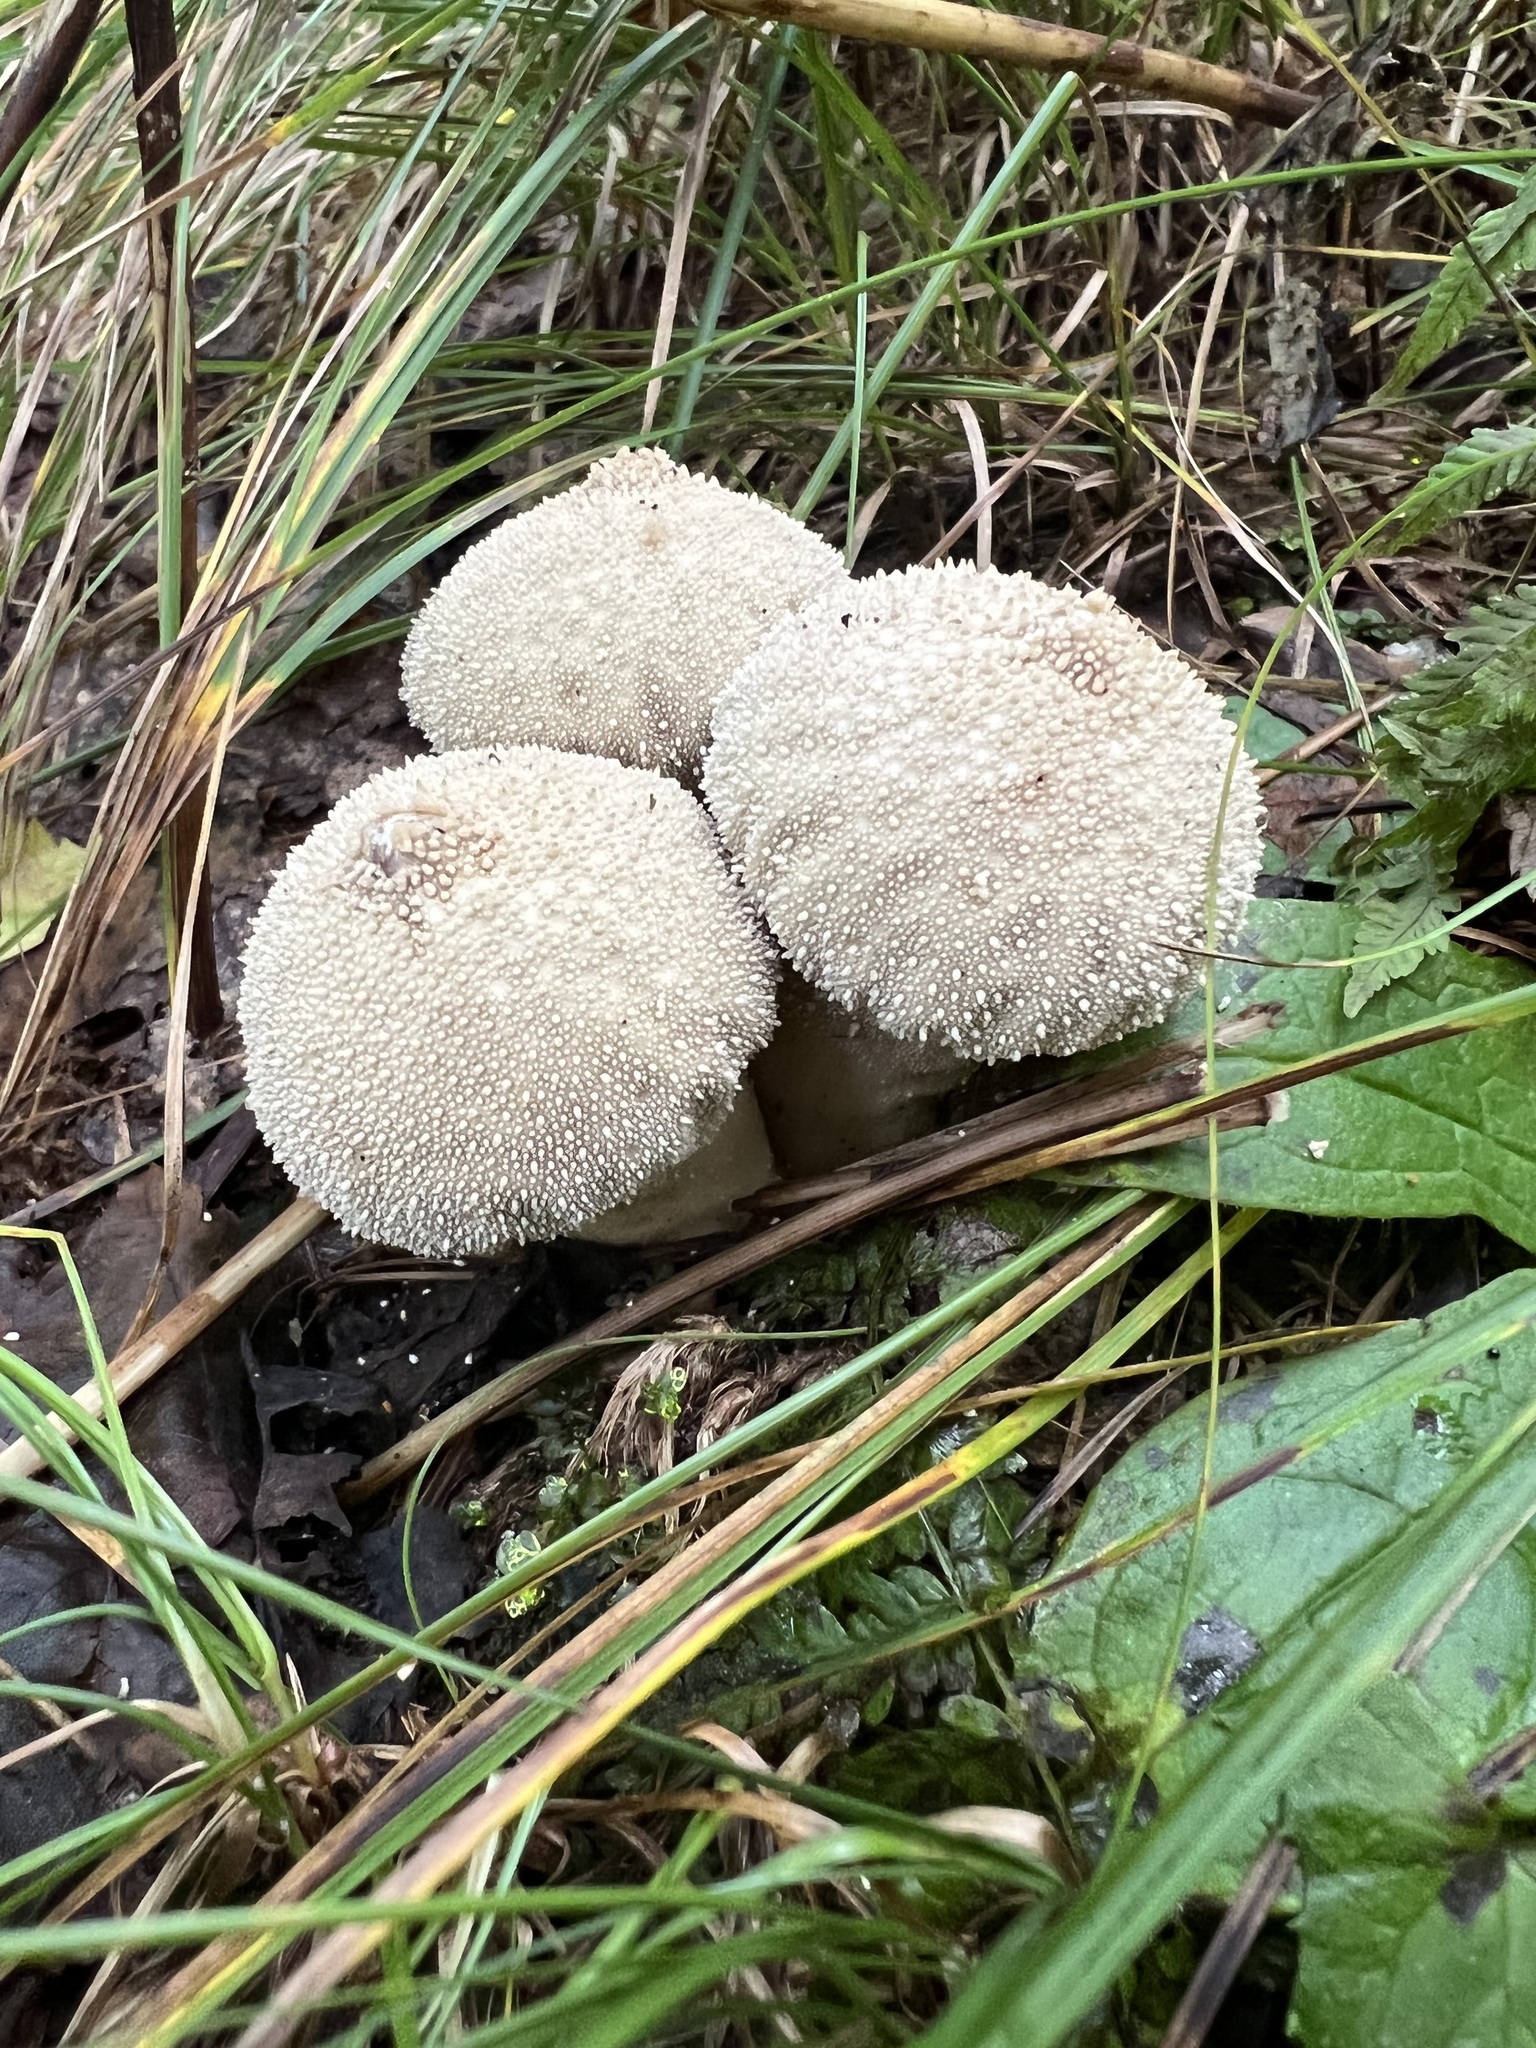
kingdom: Fungi
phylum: Basidiomycota
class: Agaricomycetes
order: Agaricales
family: Lycoperdaceae
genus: Lycoperdon
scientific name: Lycoperdon perlatum
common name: Common puffball
